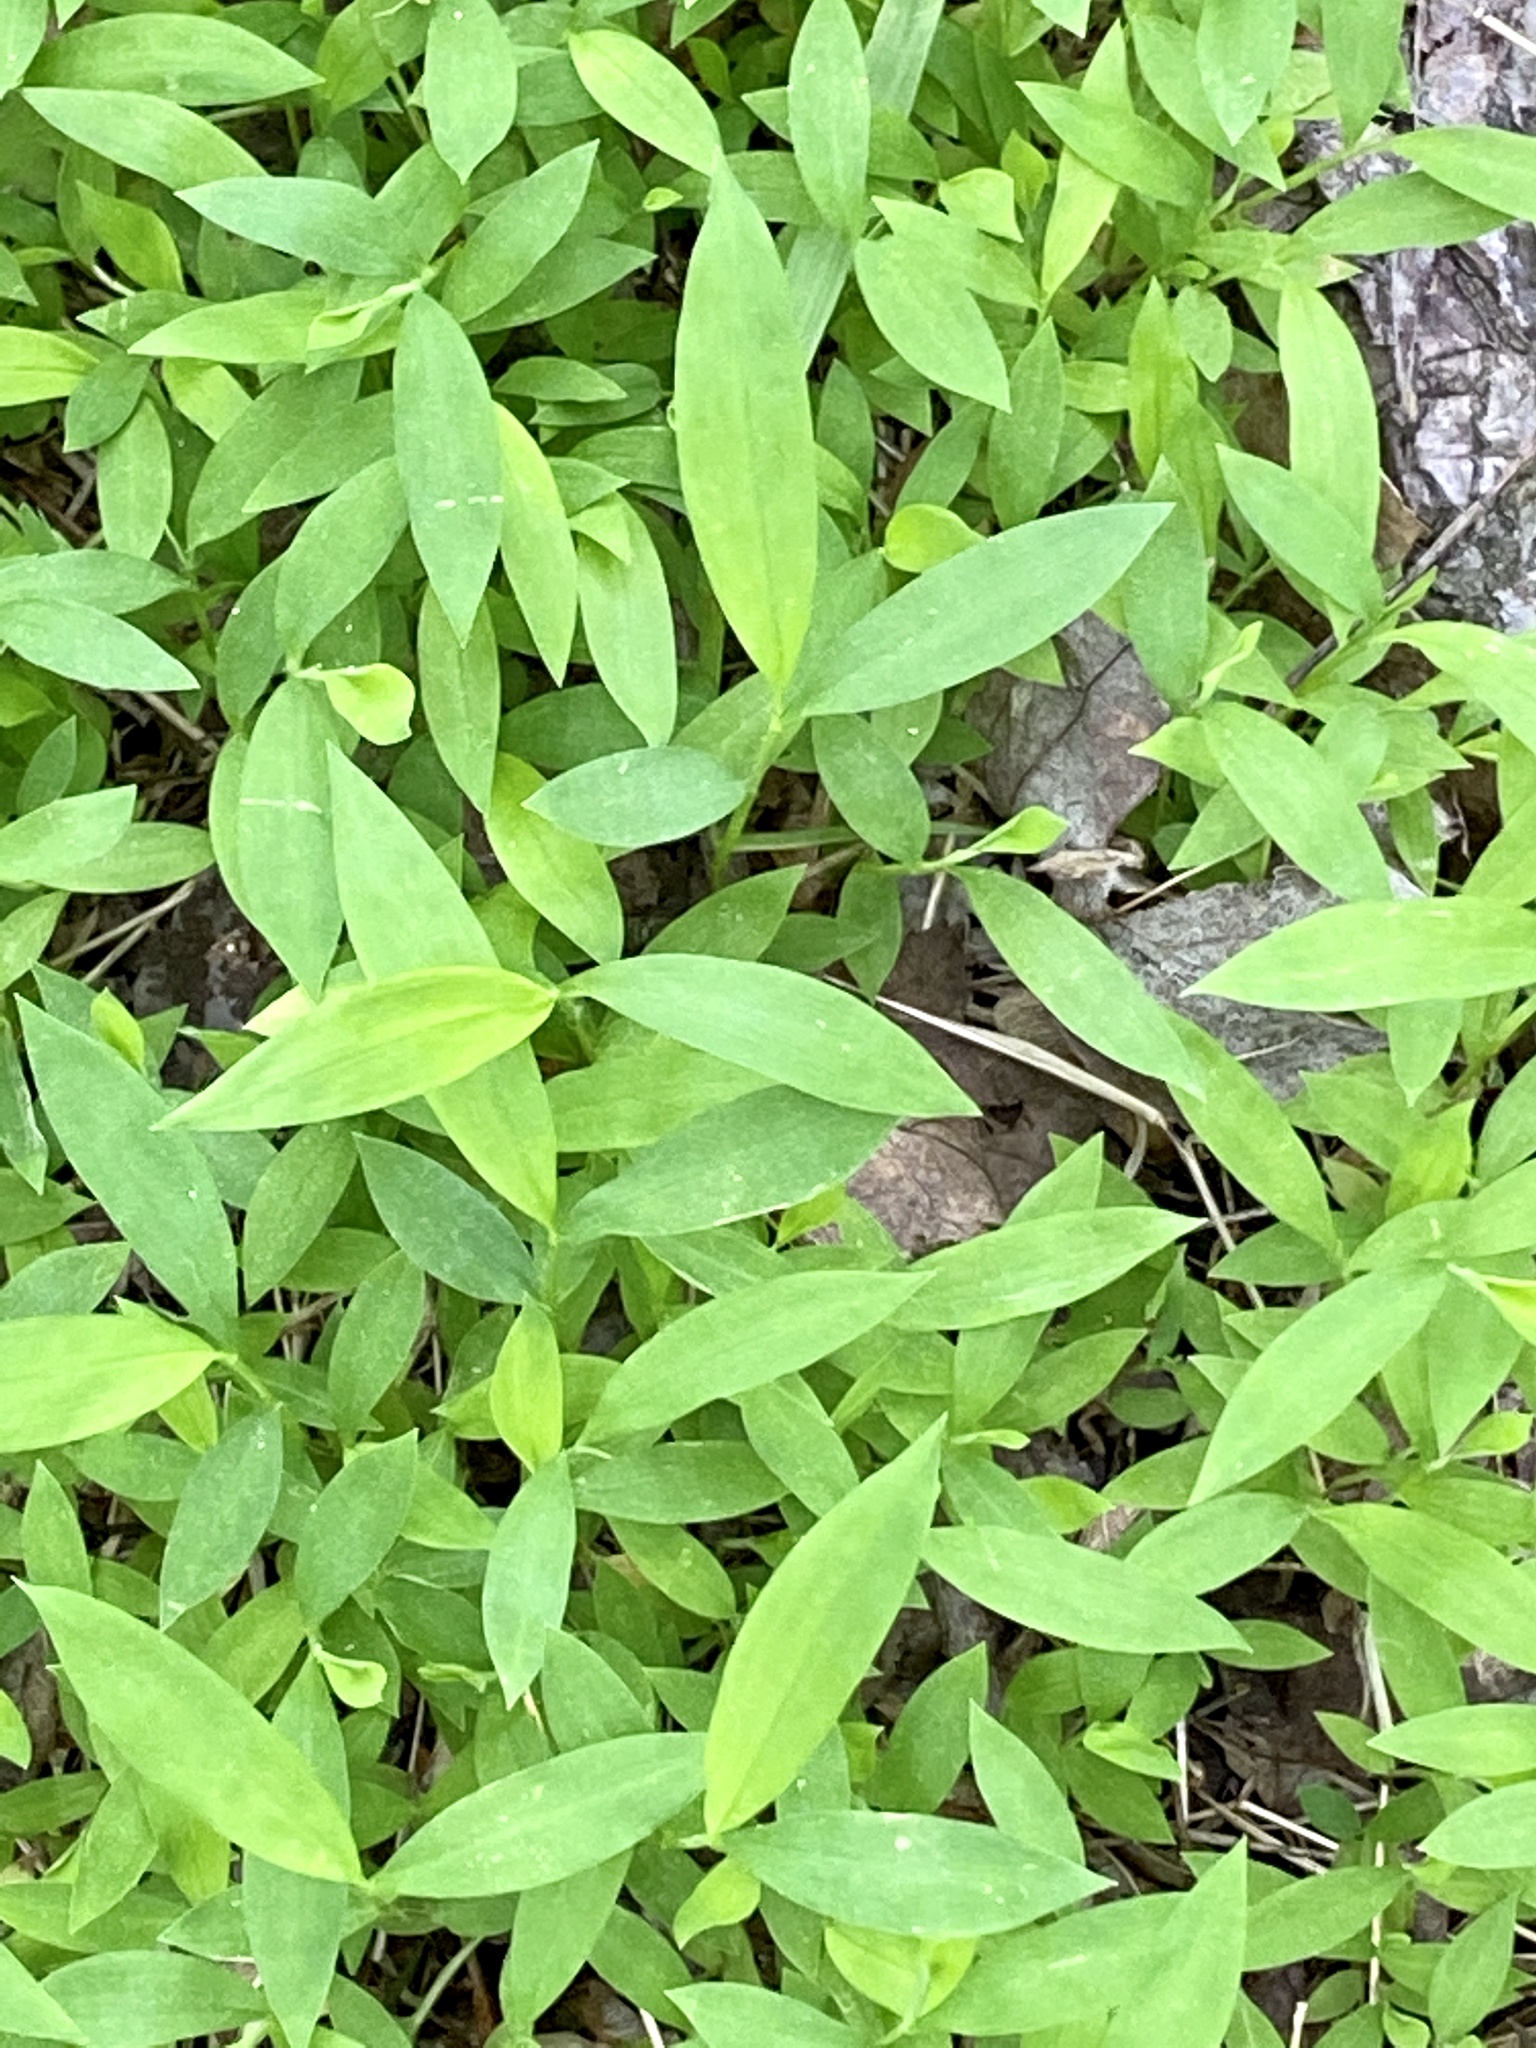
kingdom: Plantae
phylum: Tracheophyta
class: Liliopsida
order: Poales
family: Poaceae
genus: Microstegium
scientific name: Microstegium vimineum
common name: Japanese stiltgrass
